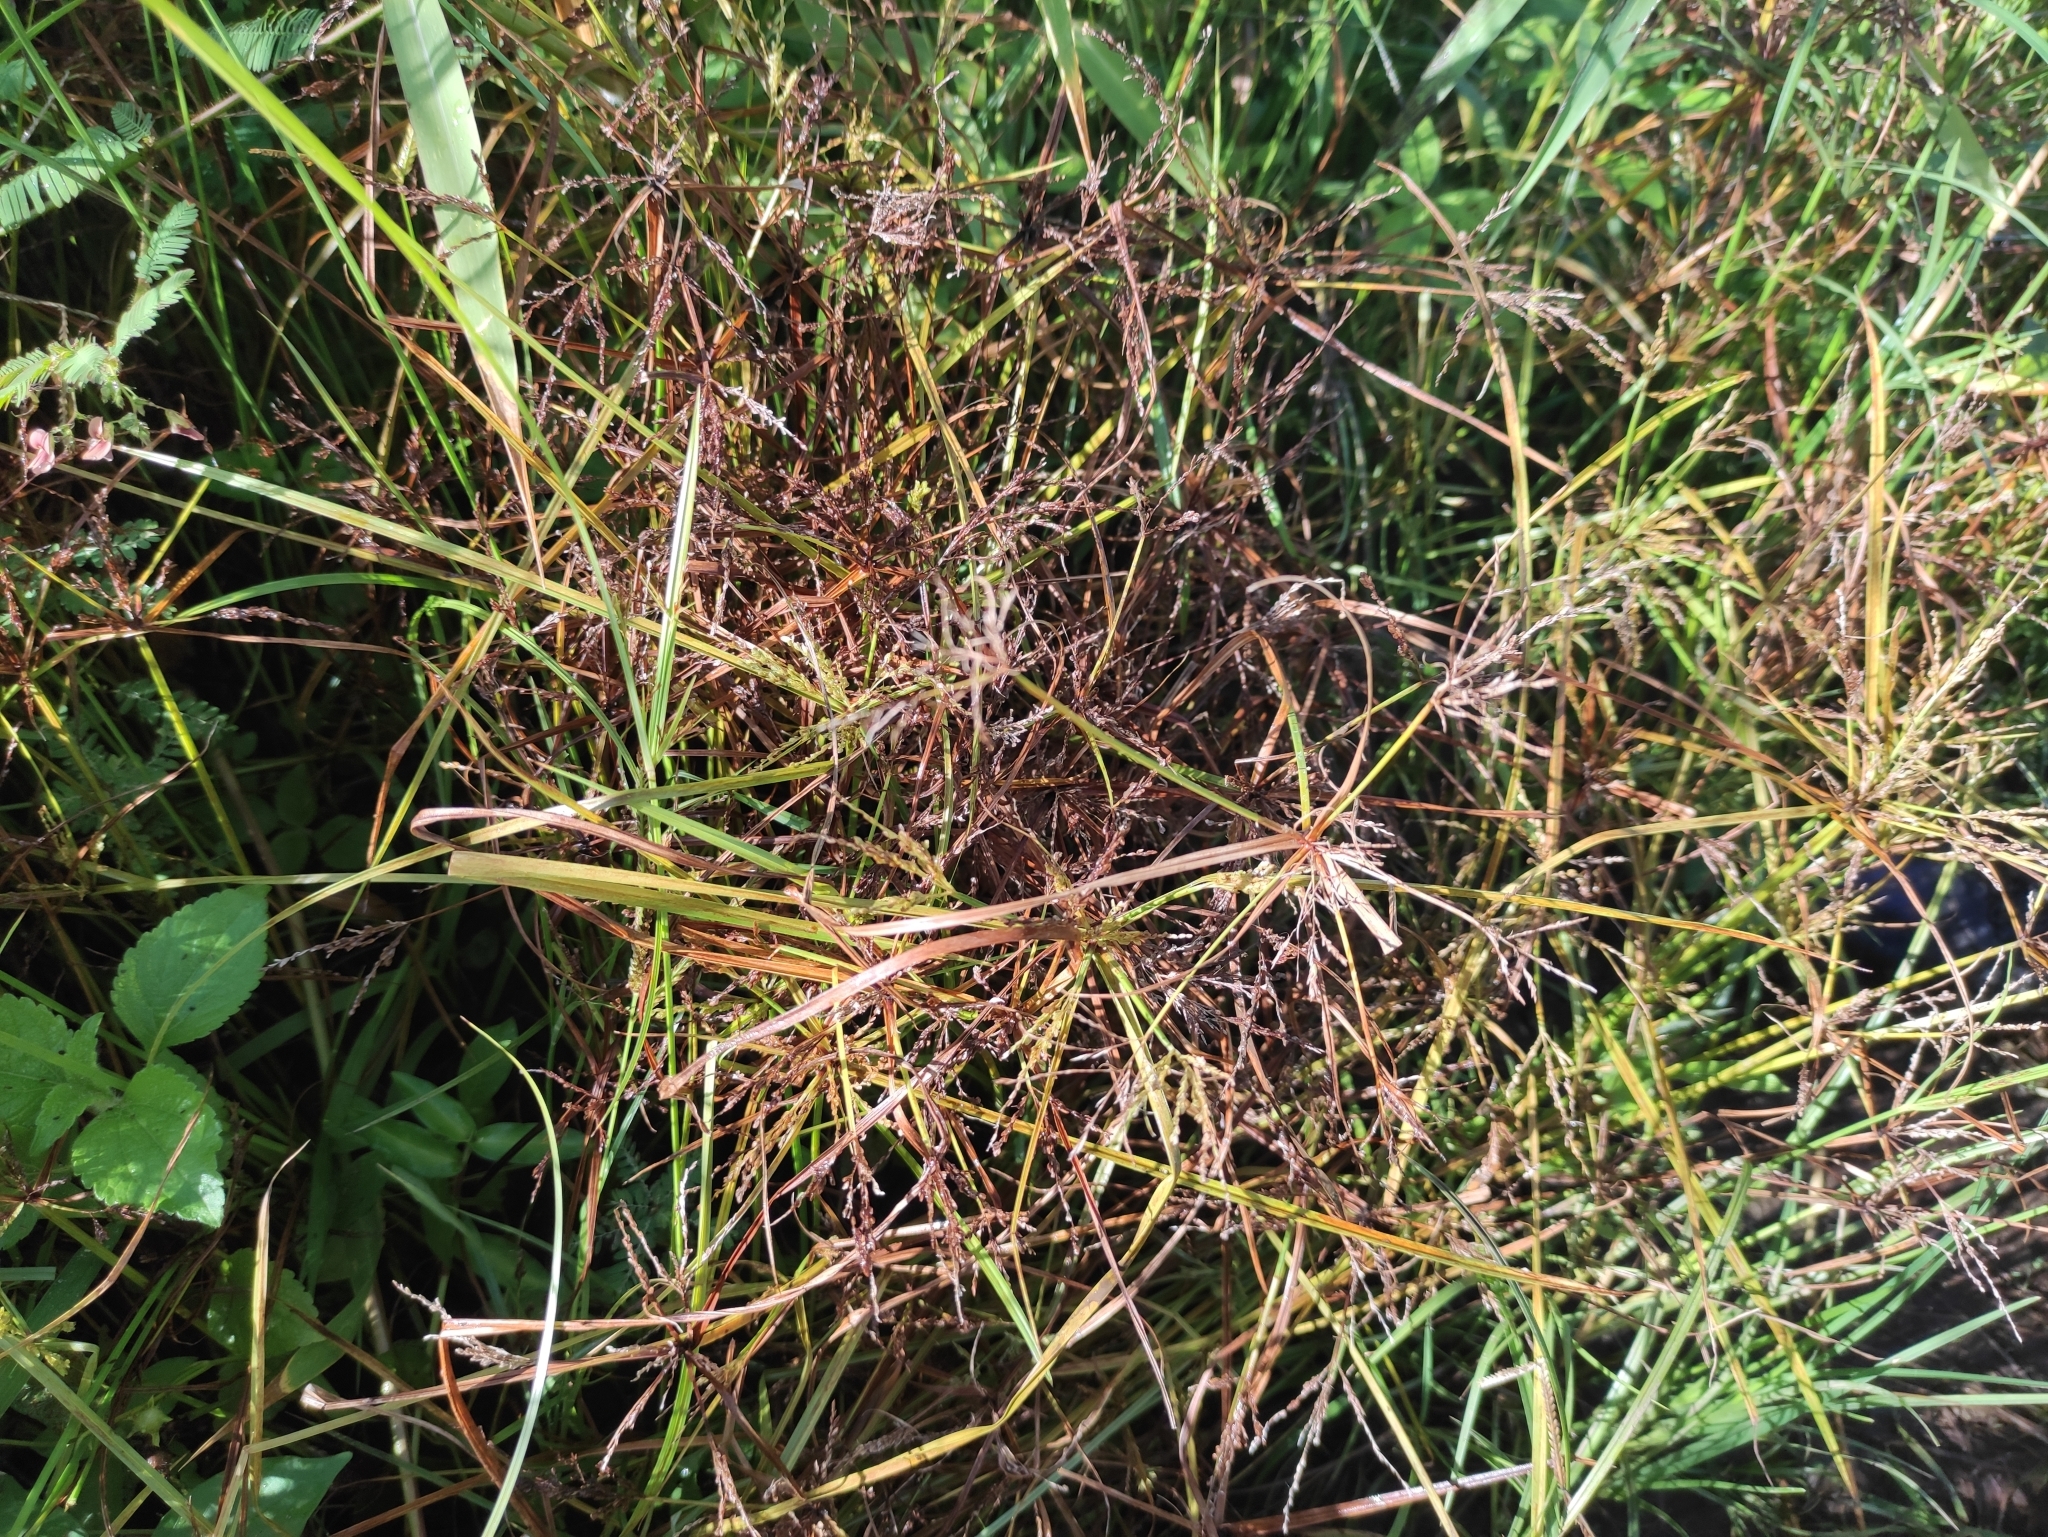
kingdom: Plantae
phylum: Tracheophyta
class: Liliopsida
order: Poales
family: Cyperaceae
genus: Cyperus
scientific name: Cyperus iria
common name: Ricefield flatsedge
